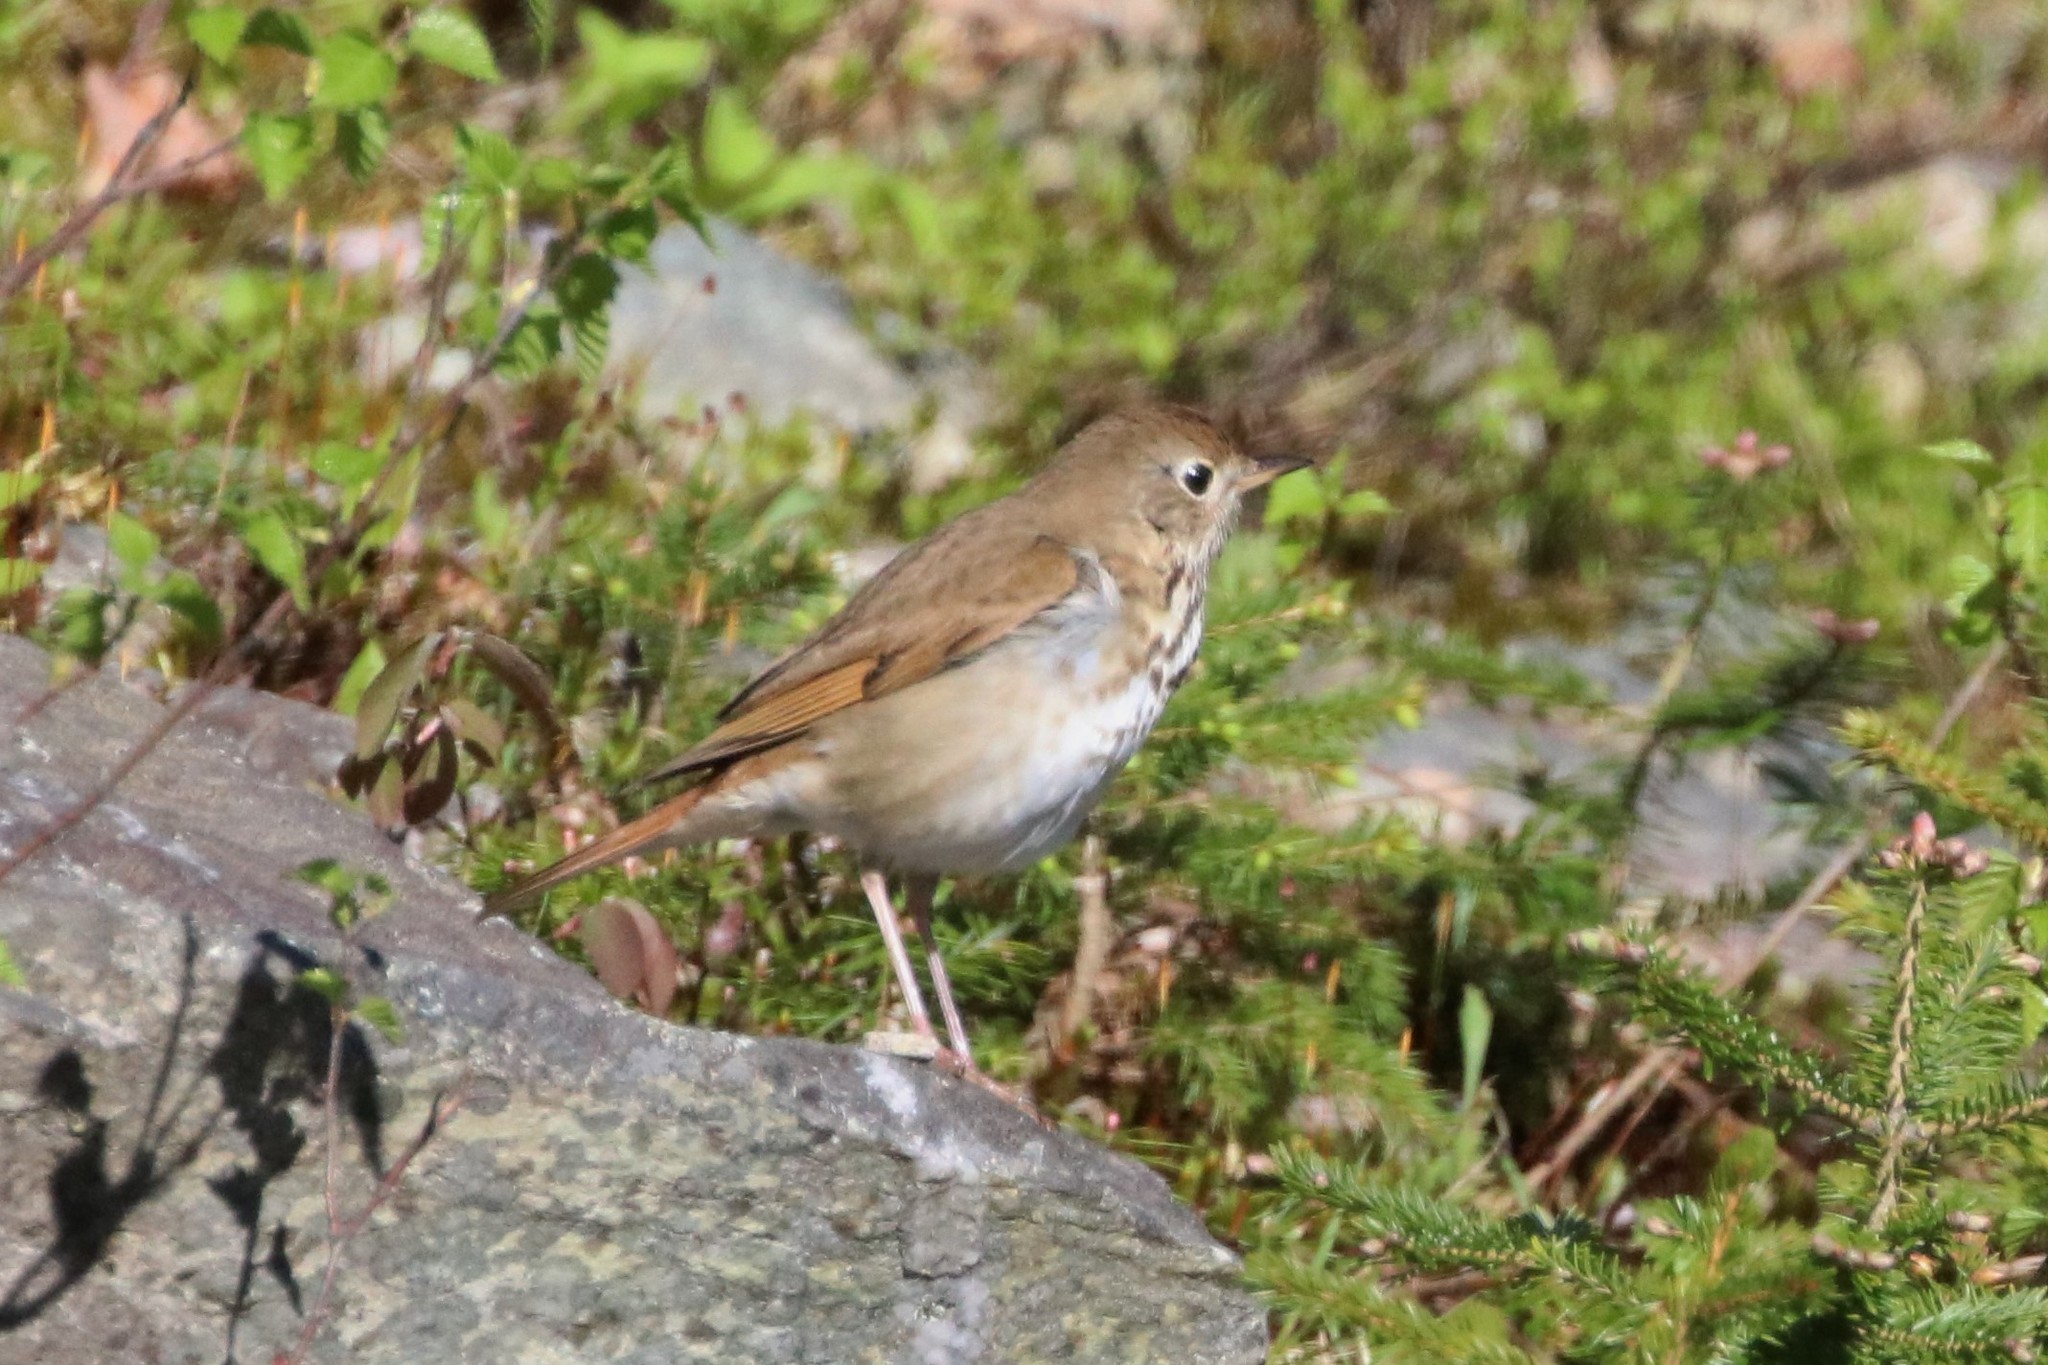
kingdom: Animalia
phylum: Chordata
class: Aves
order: Passeriformes
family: Turdidae
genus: Catharus
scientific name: Catharus guttatus
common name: Hermit thrush
